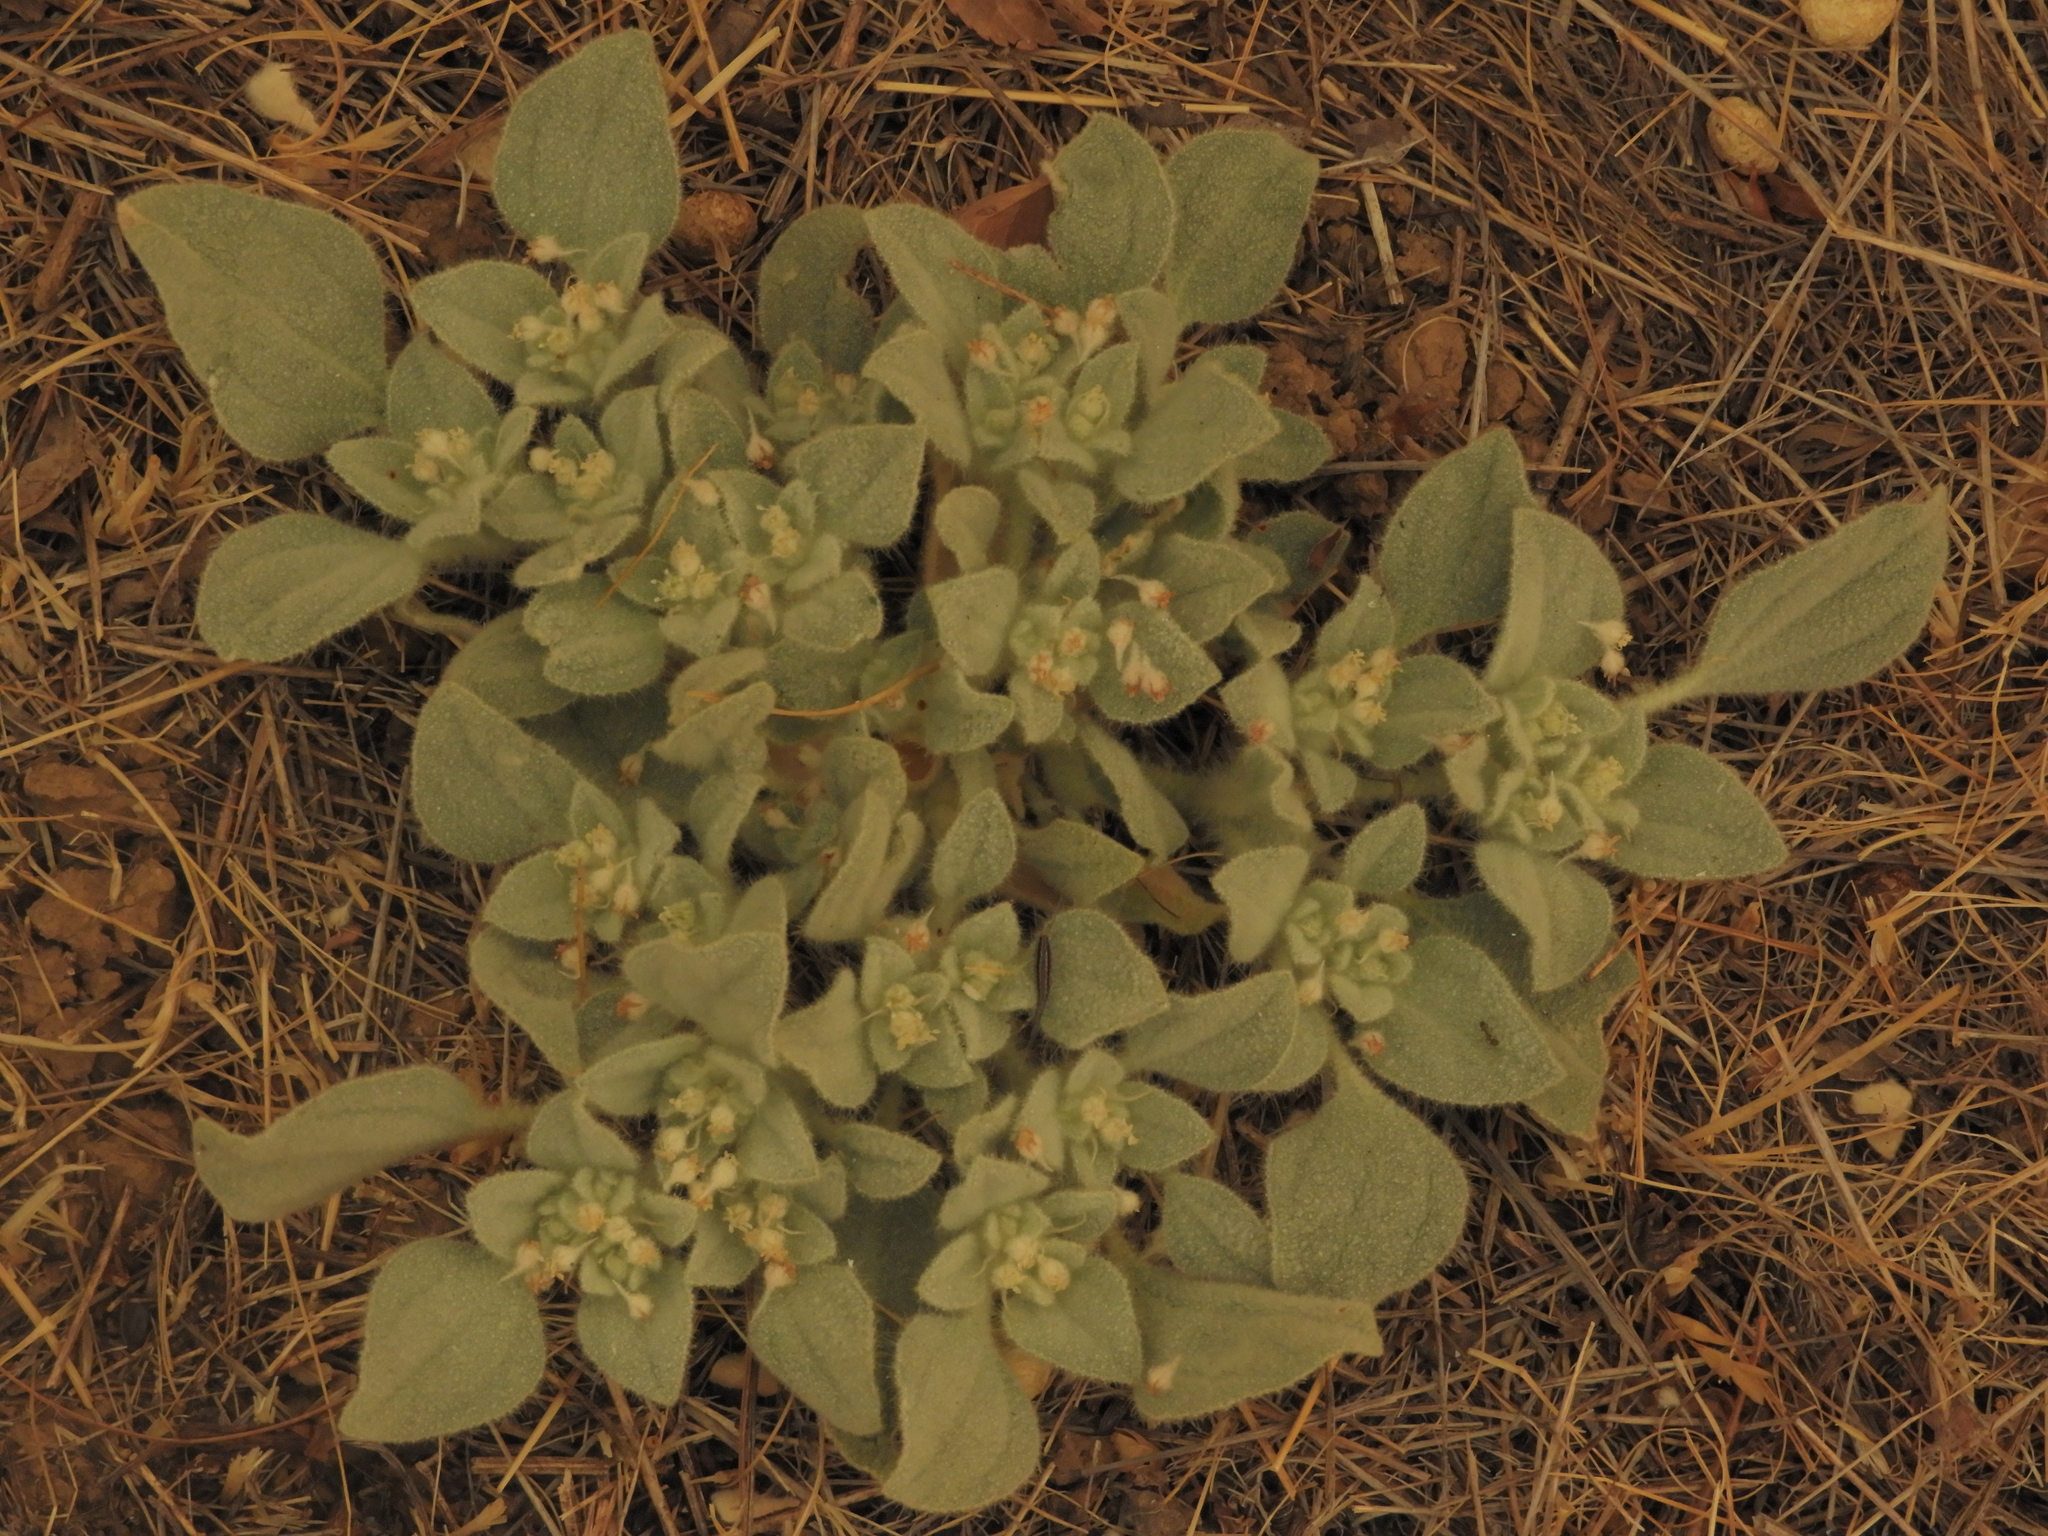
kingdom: Plantae
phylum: Tracheophyta
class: Magnoliopsida
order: Malpighiales
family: Euphorbiaceae
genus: Croton
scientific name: Croton setiger
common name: Dove weed
